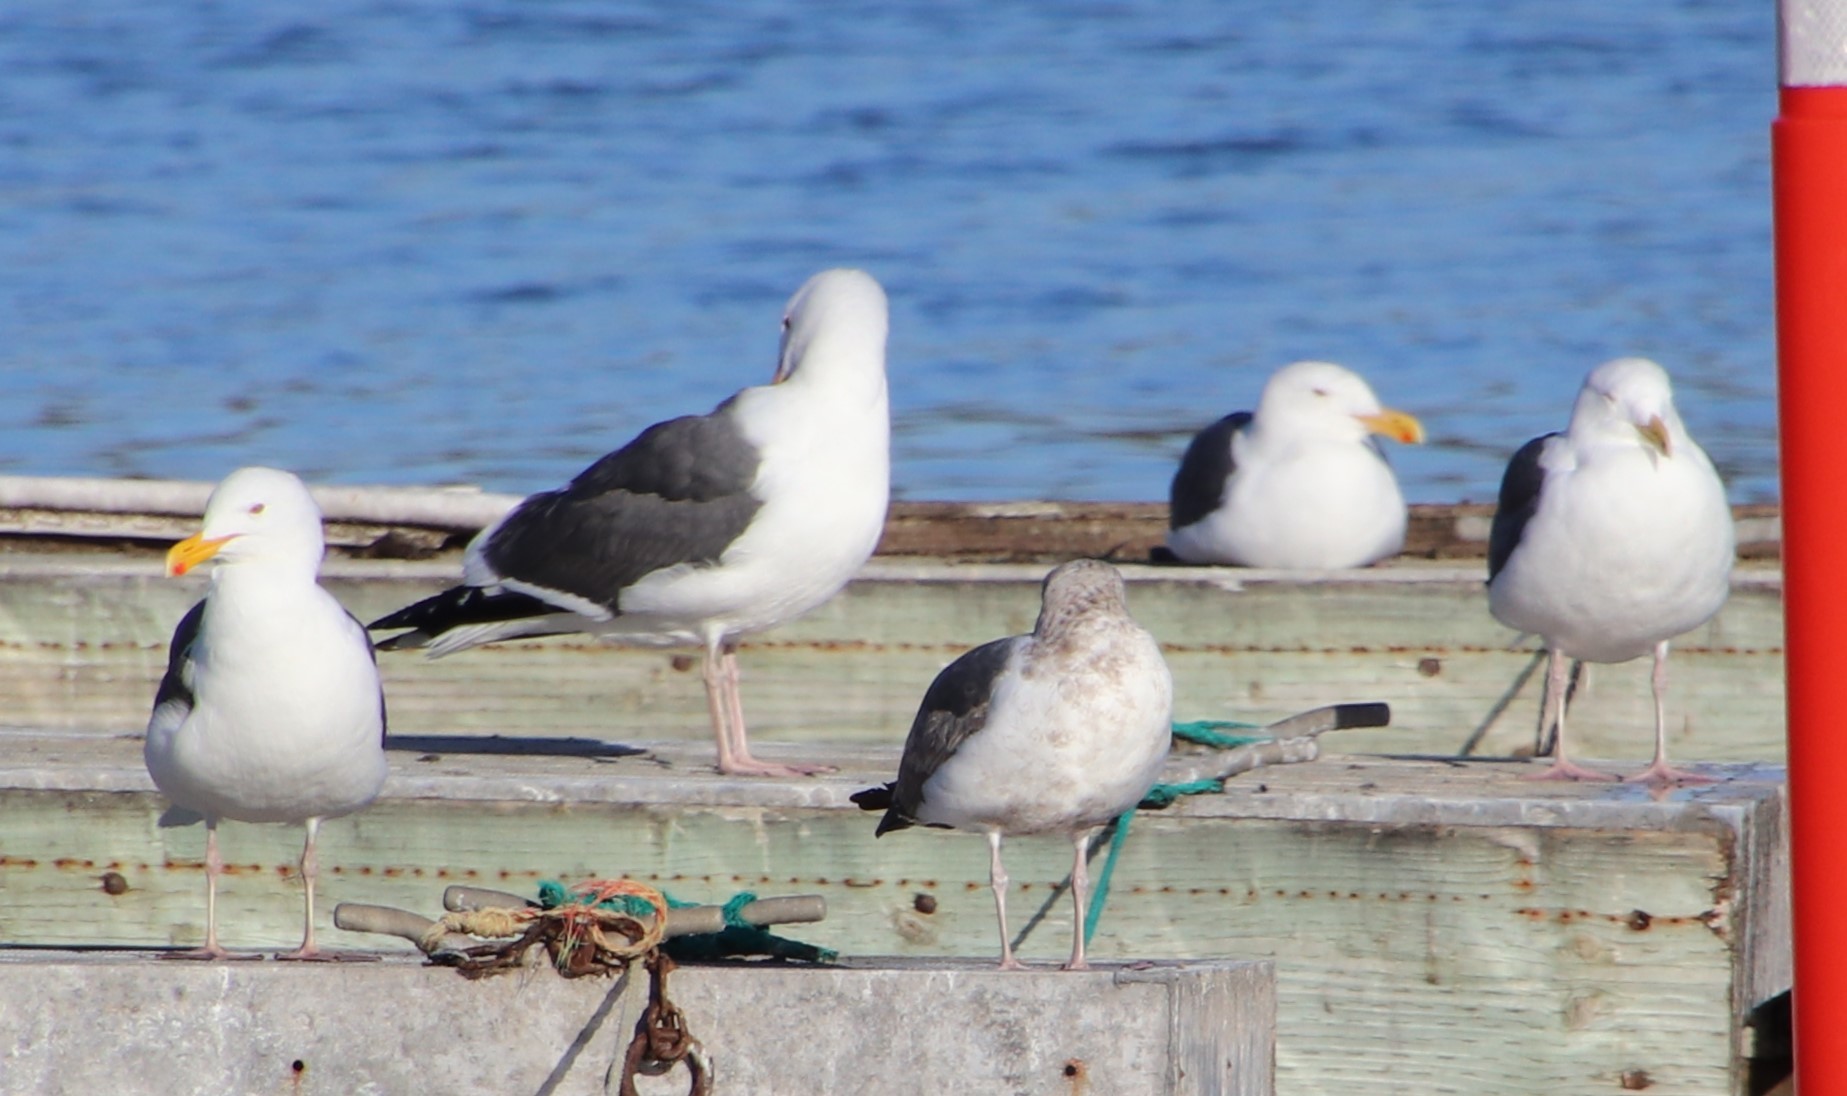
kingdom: Animalia
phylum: Chordata
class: Aves
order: Charadriiformes
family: Laridae
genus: Larus
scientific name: Larus occidentalis
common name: Western gull
